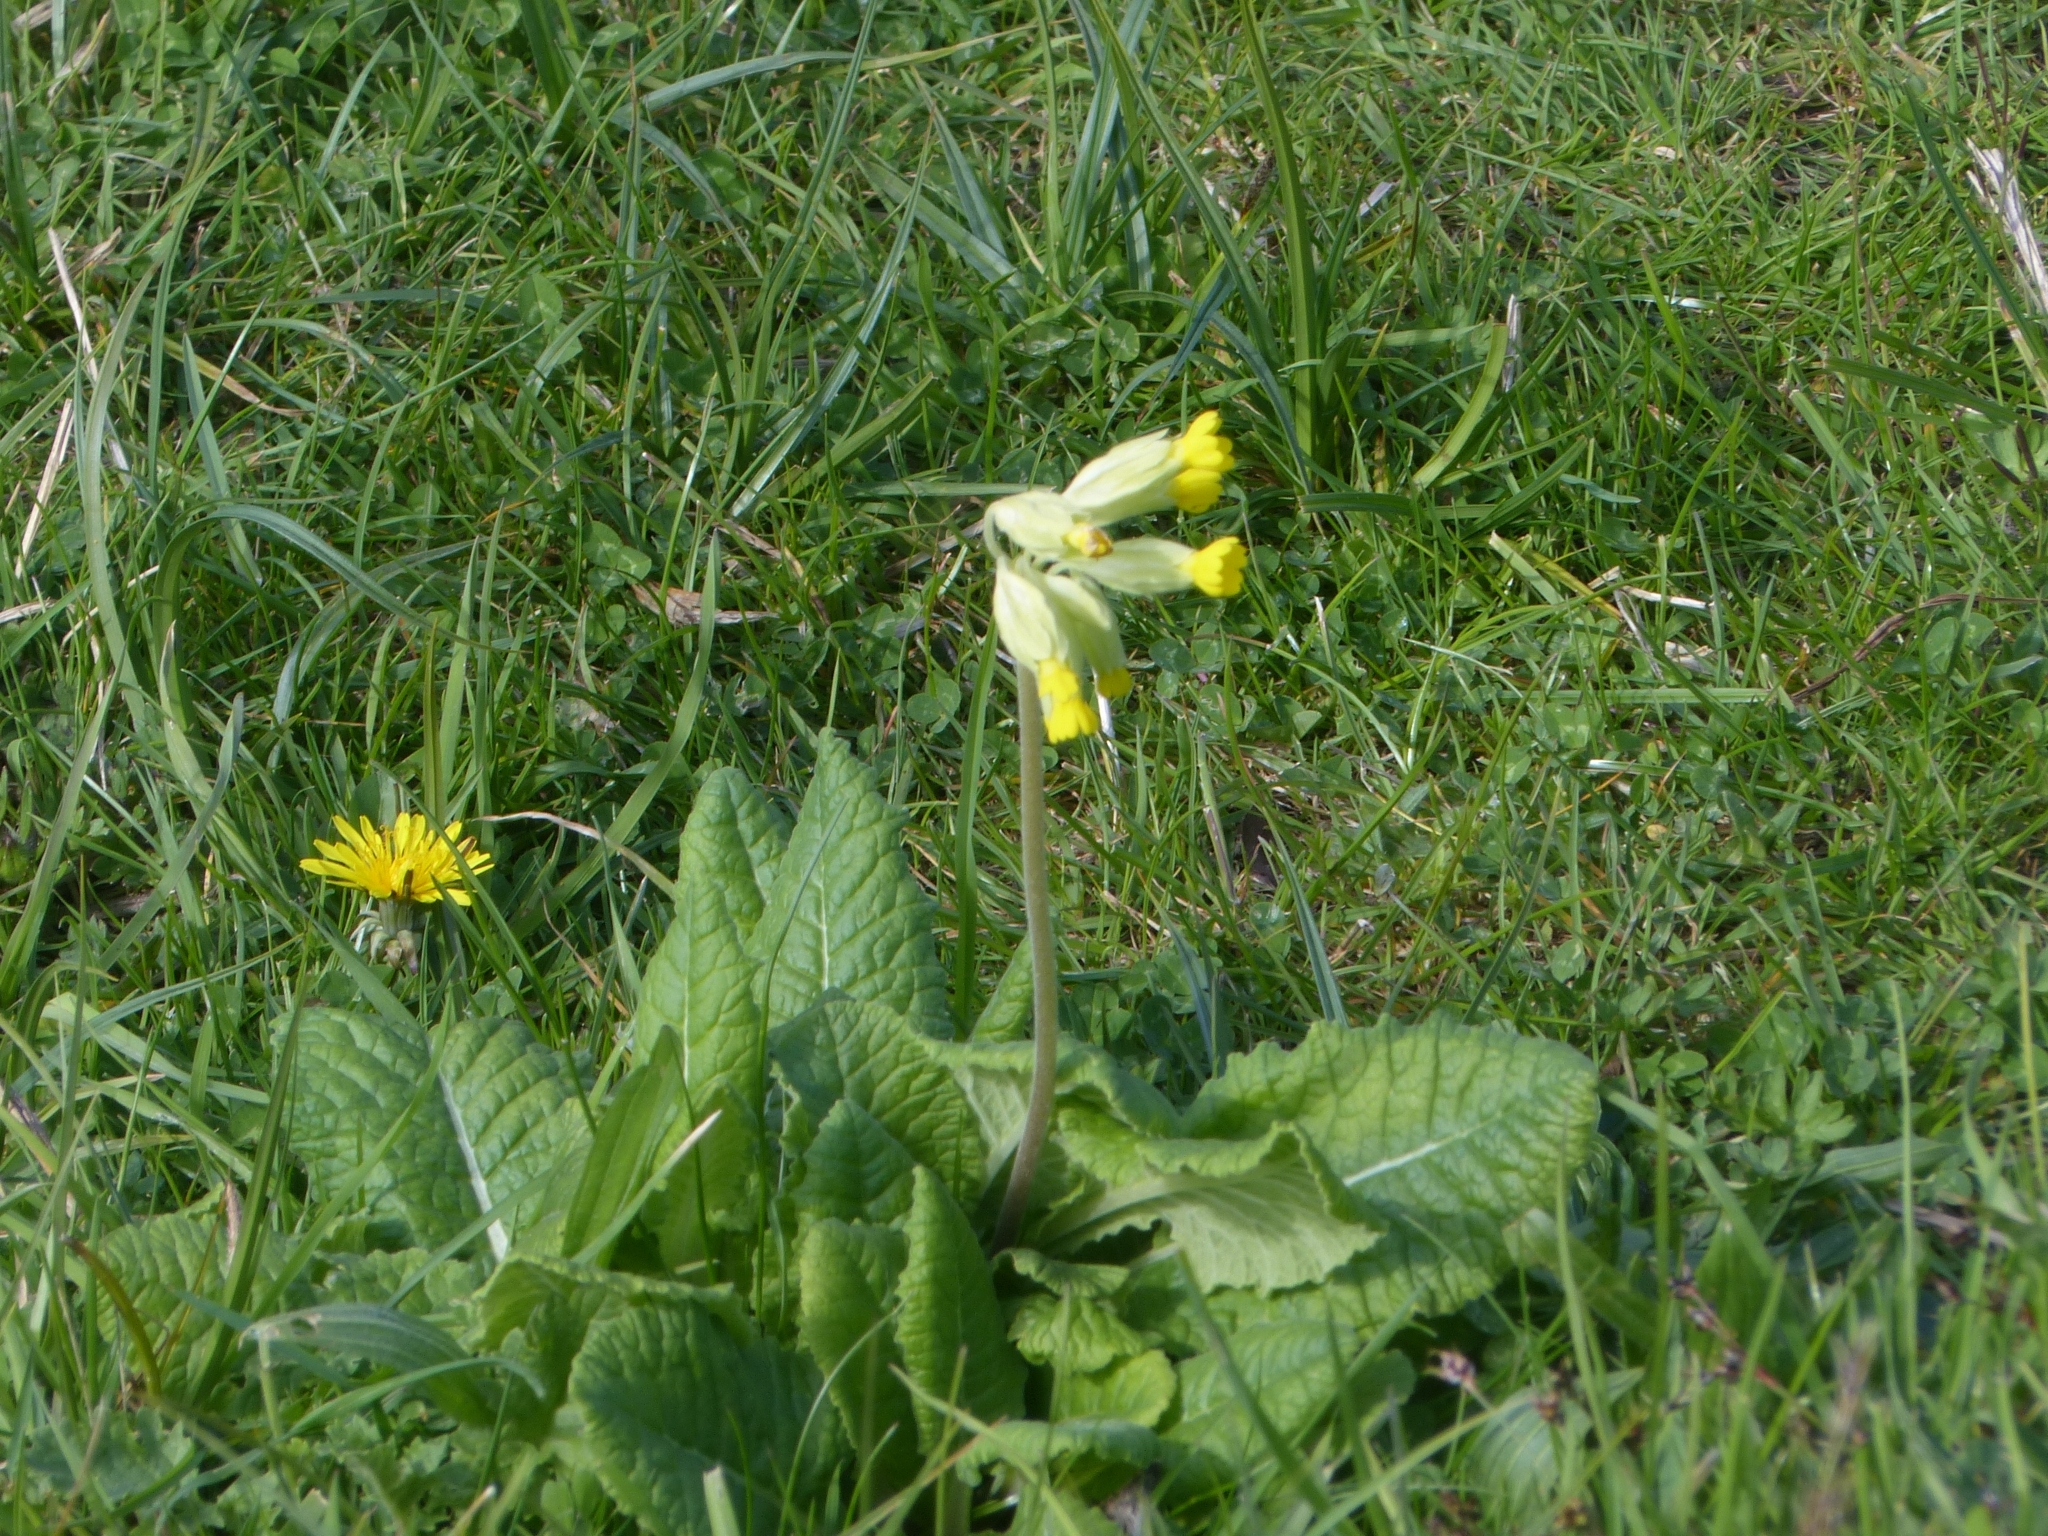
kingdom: Plantae
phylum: Tracheophyta
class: Magnoliopsida
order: Ericales
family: Primulaceae
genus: Primula
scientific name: Primula veris
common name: Cowslip
